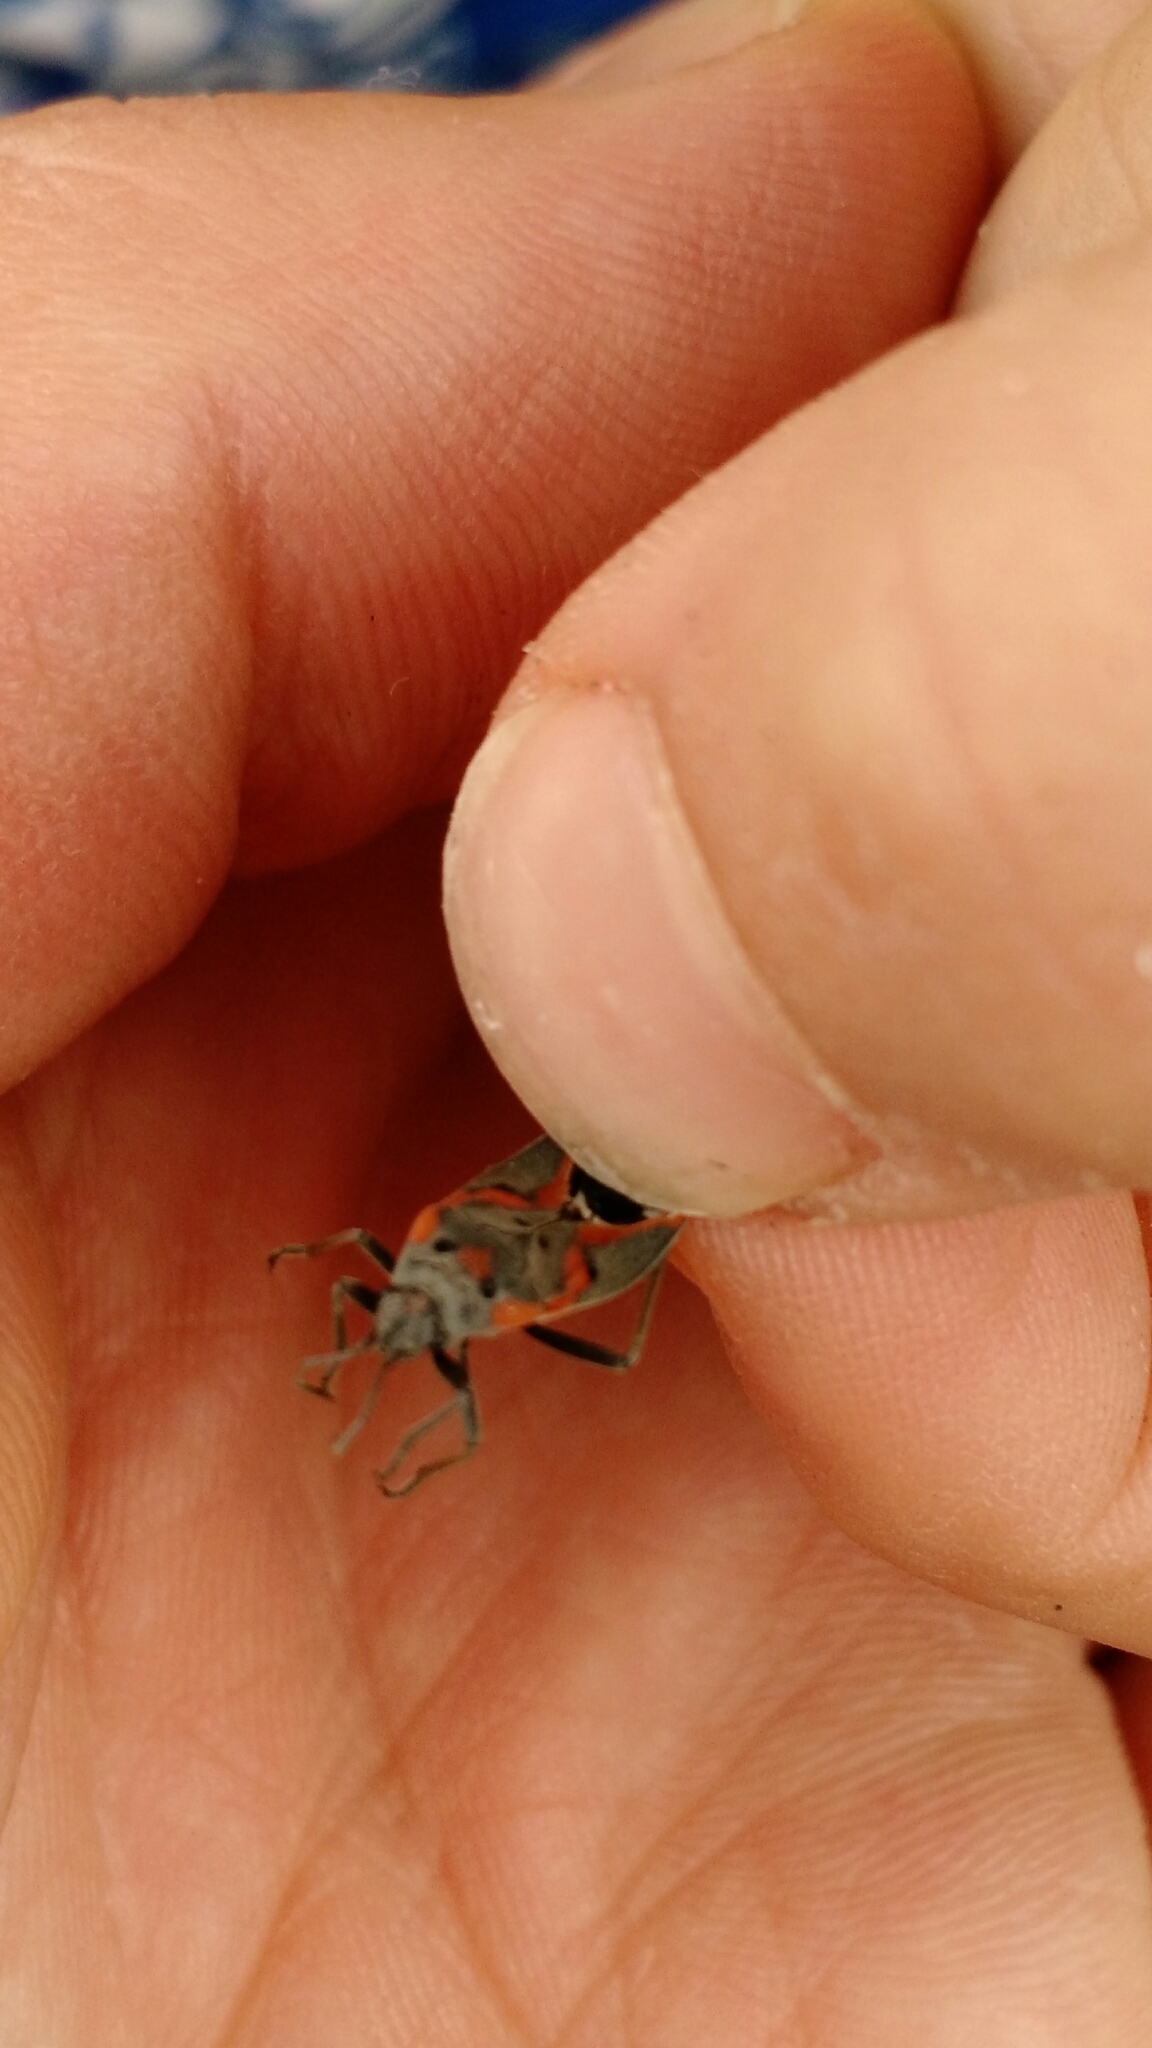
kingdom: Animalia
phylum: Arthropoda
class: Insecta
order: Hemiptera
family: Lygaeidae
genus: Lygaeus
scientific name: Lygaeus kalmii
